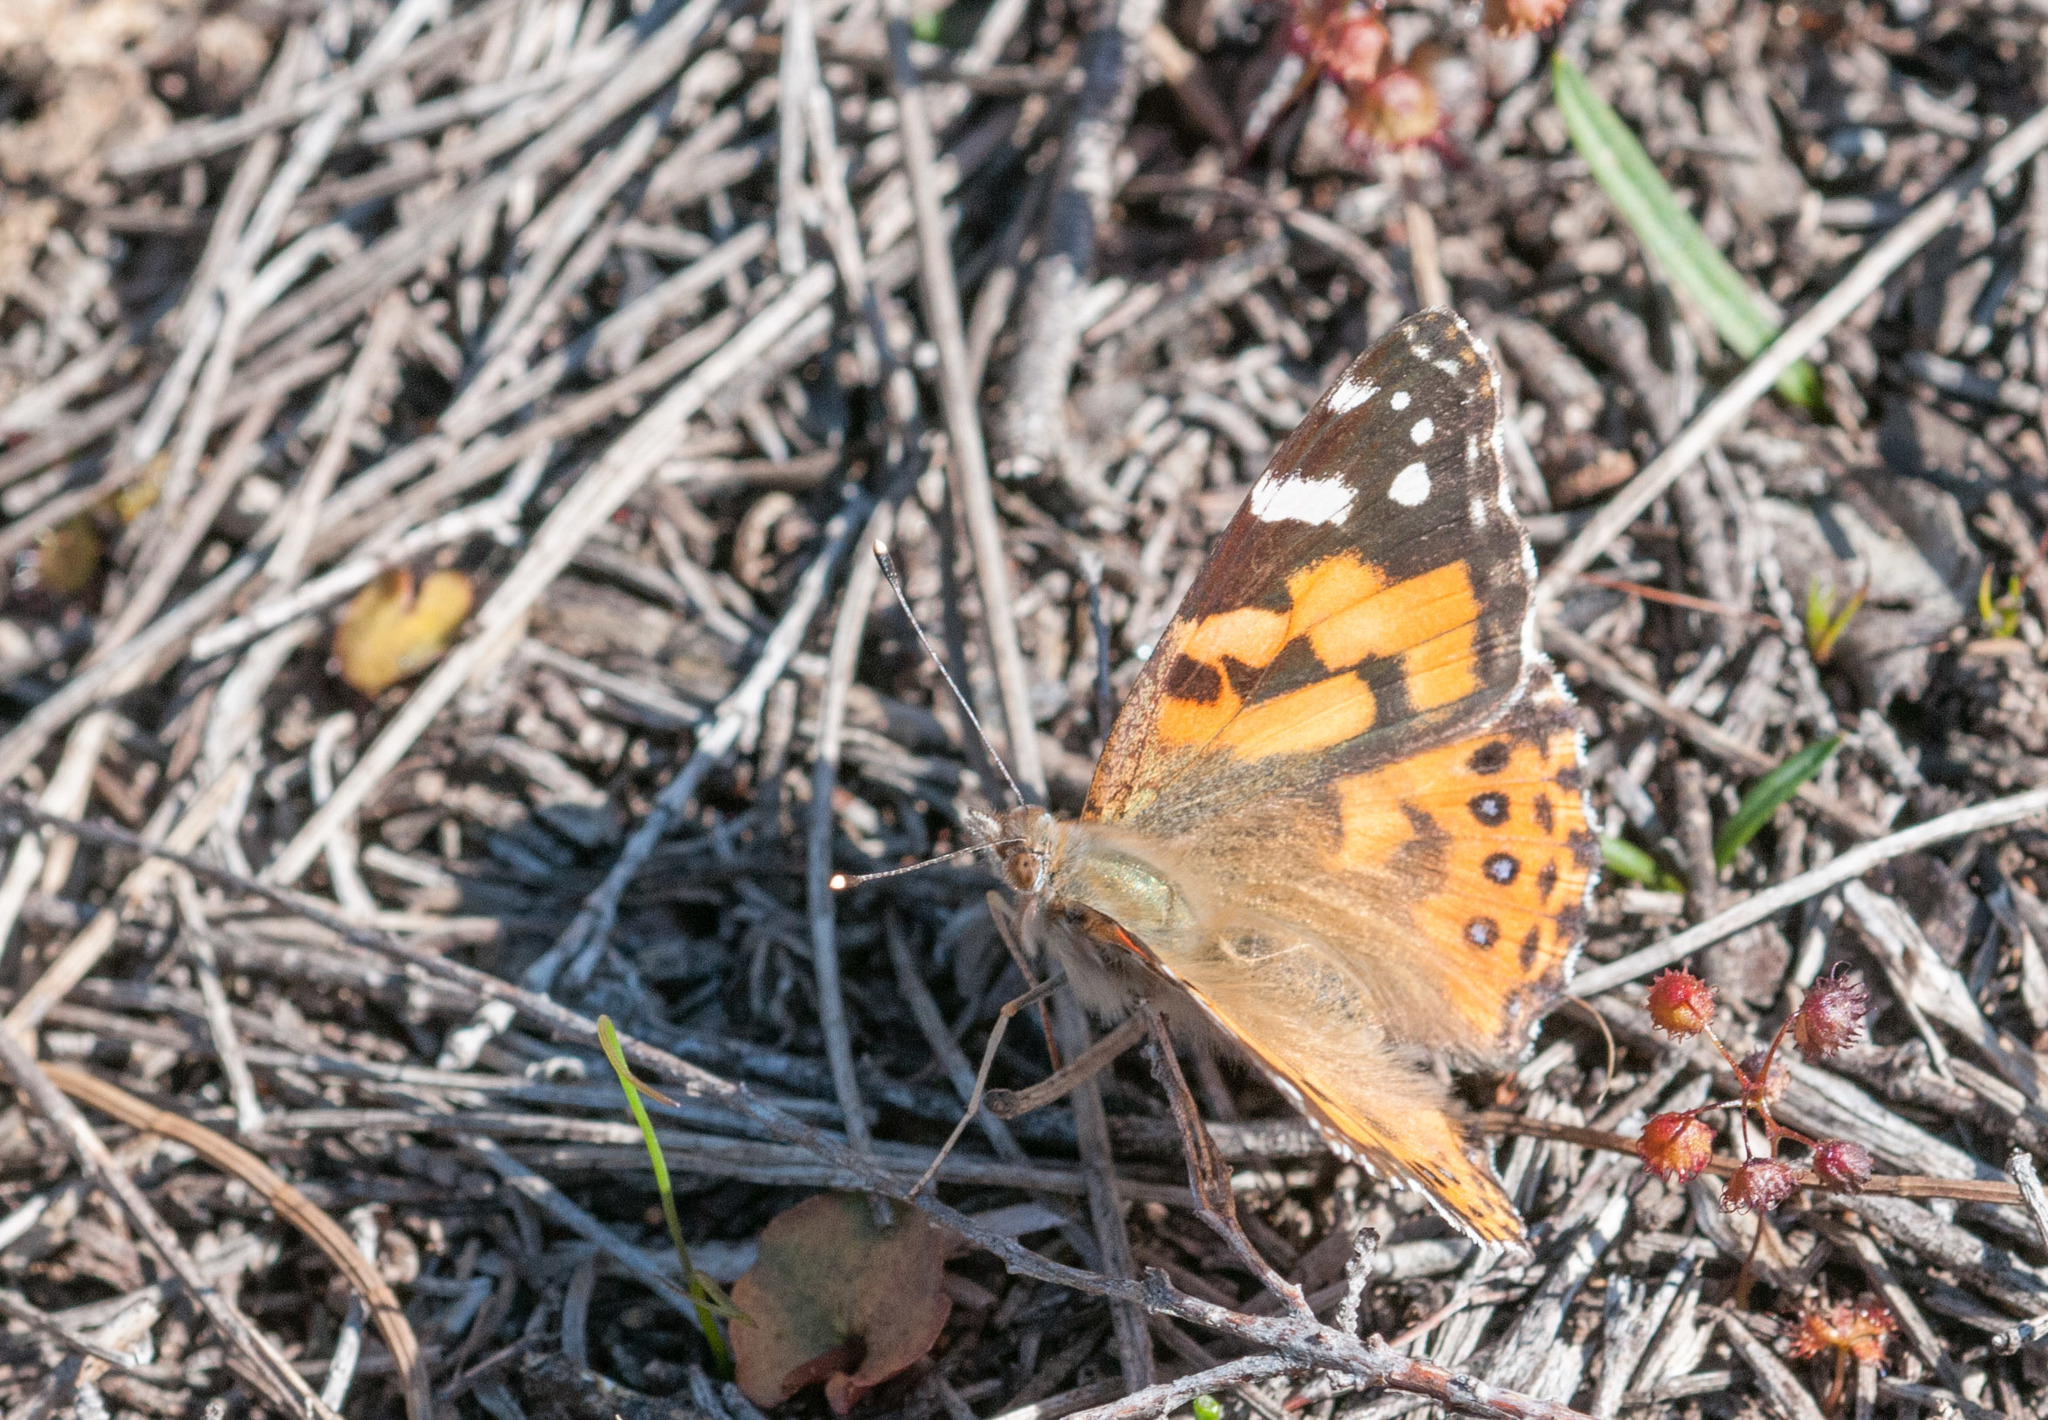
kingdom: Animalia
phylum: Arthropoda
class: Insecta
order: Lepidoptera
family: Nymphalidae
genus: Vanessa
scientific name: Vanessa kershawi
